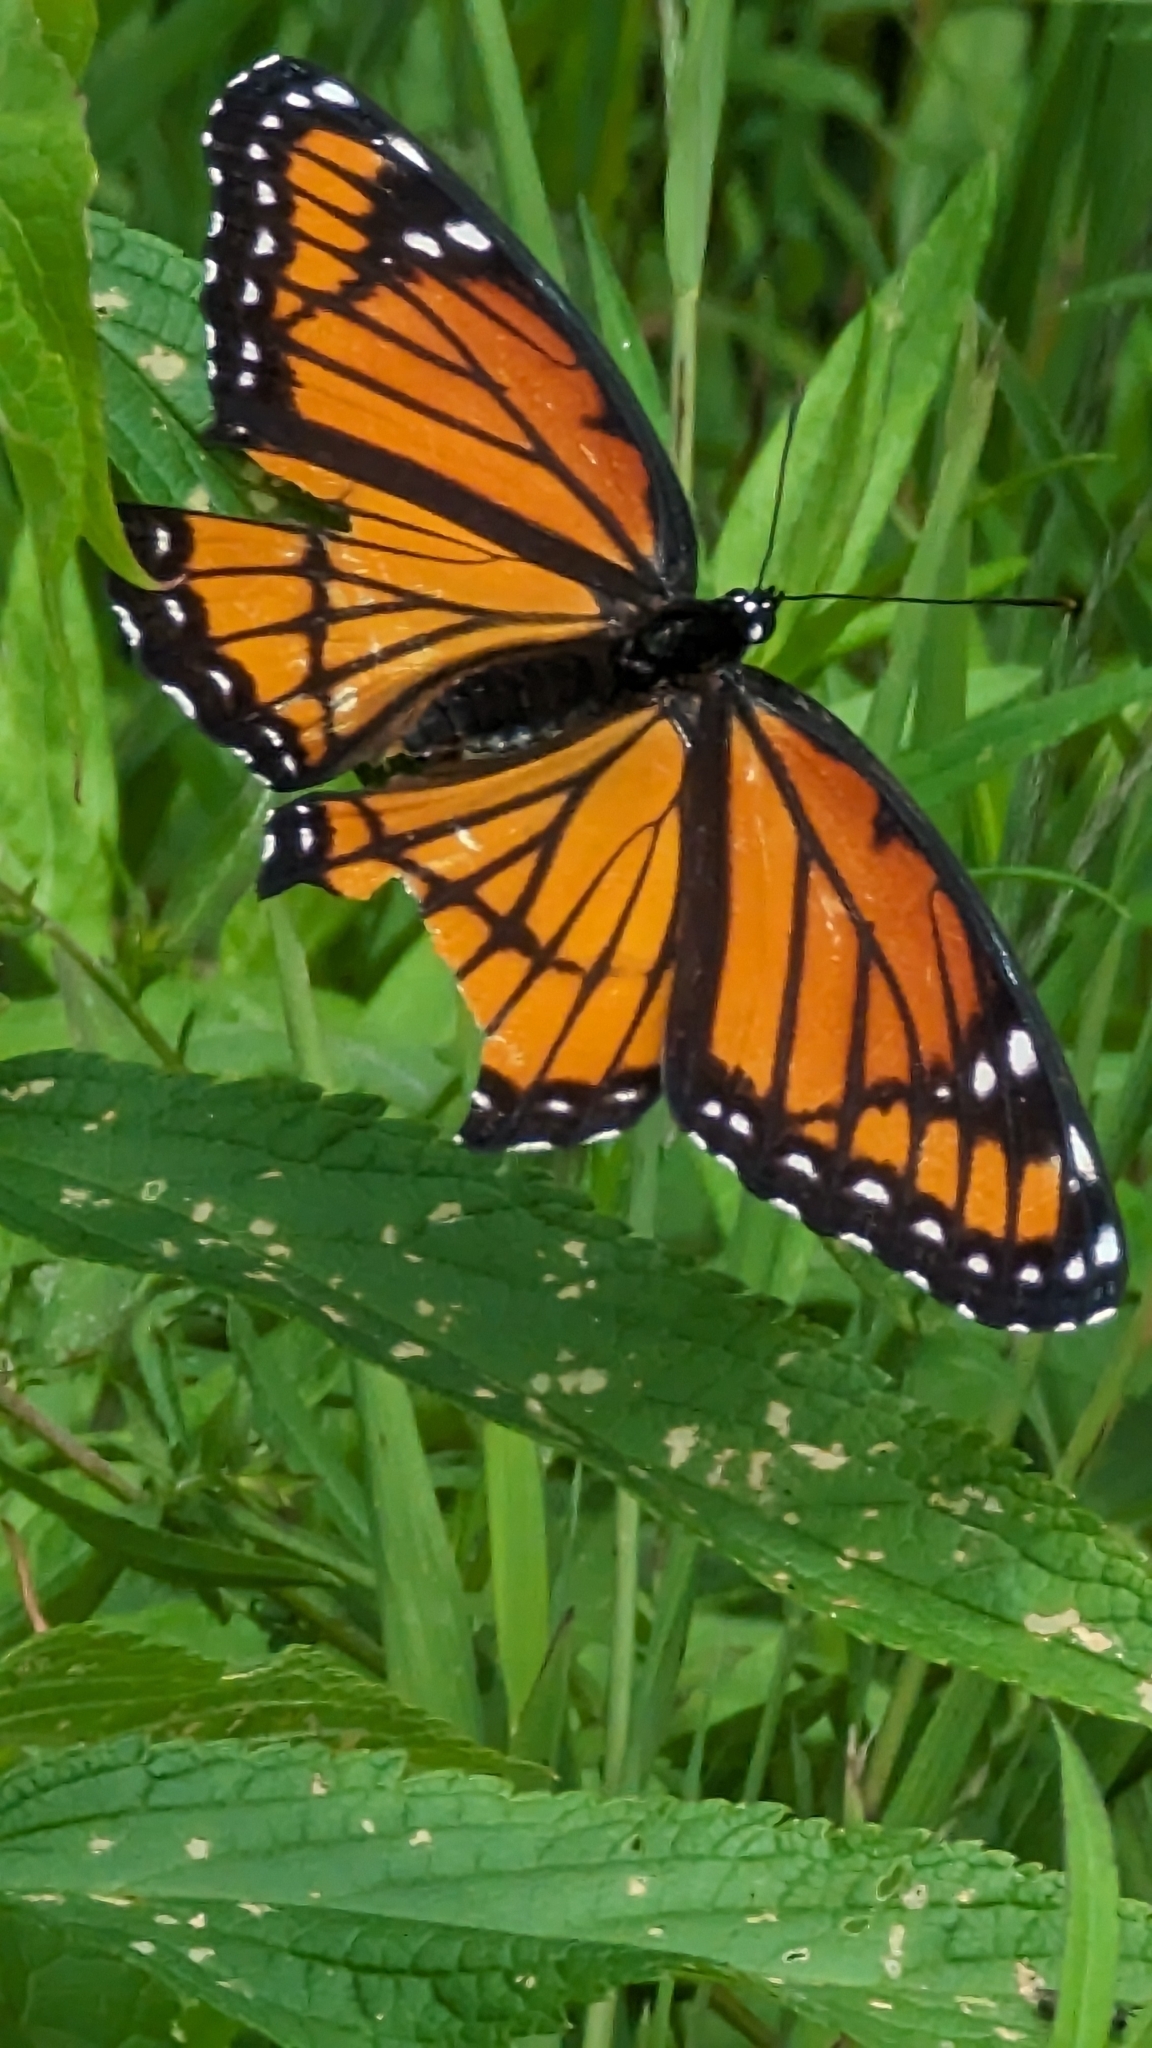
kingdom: Animalia
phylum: Arthropoda
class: Insecta
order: Lepidoptera
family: Nymphalidae
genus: Limenitis
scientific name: Limenitis archippus
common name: Viceroy
